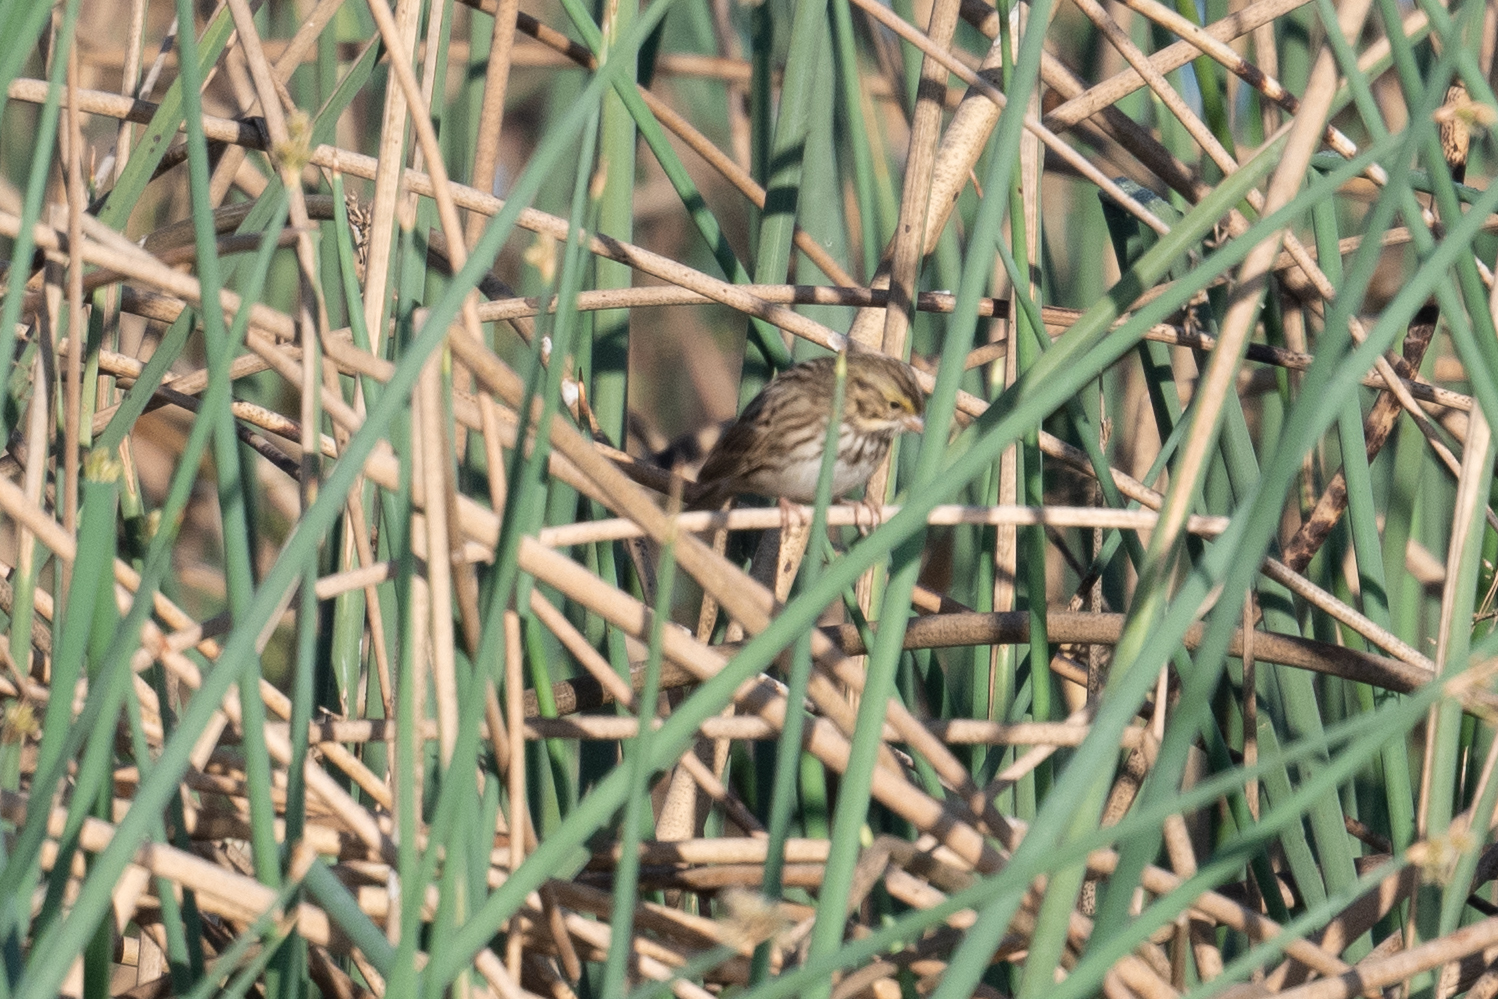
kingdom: Animalia
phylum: Chordata
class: Aves
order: Passeriformes
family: Passerellidae
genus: Passerculus
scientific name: Passerculus sandwichensis
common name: Savannah sparrow
